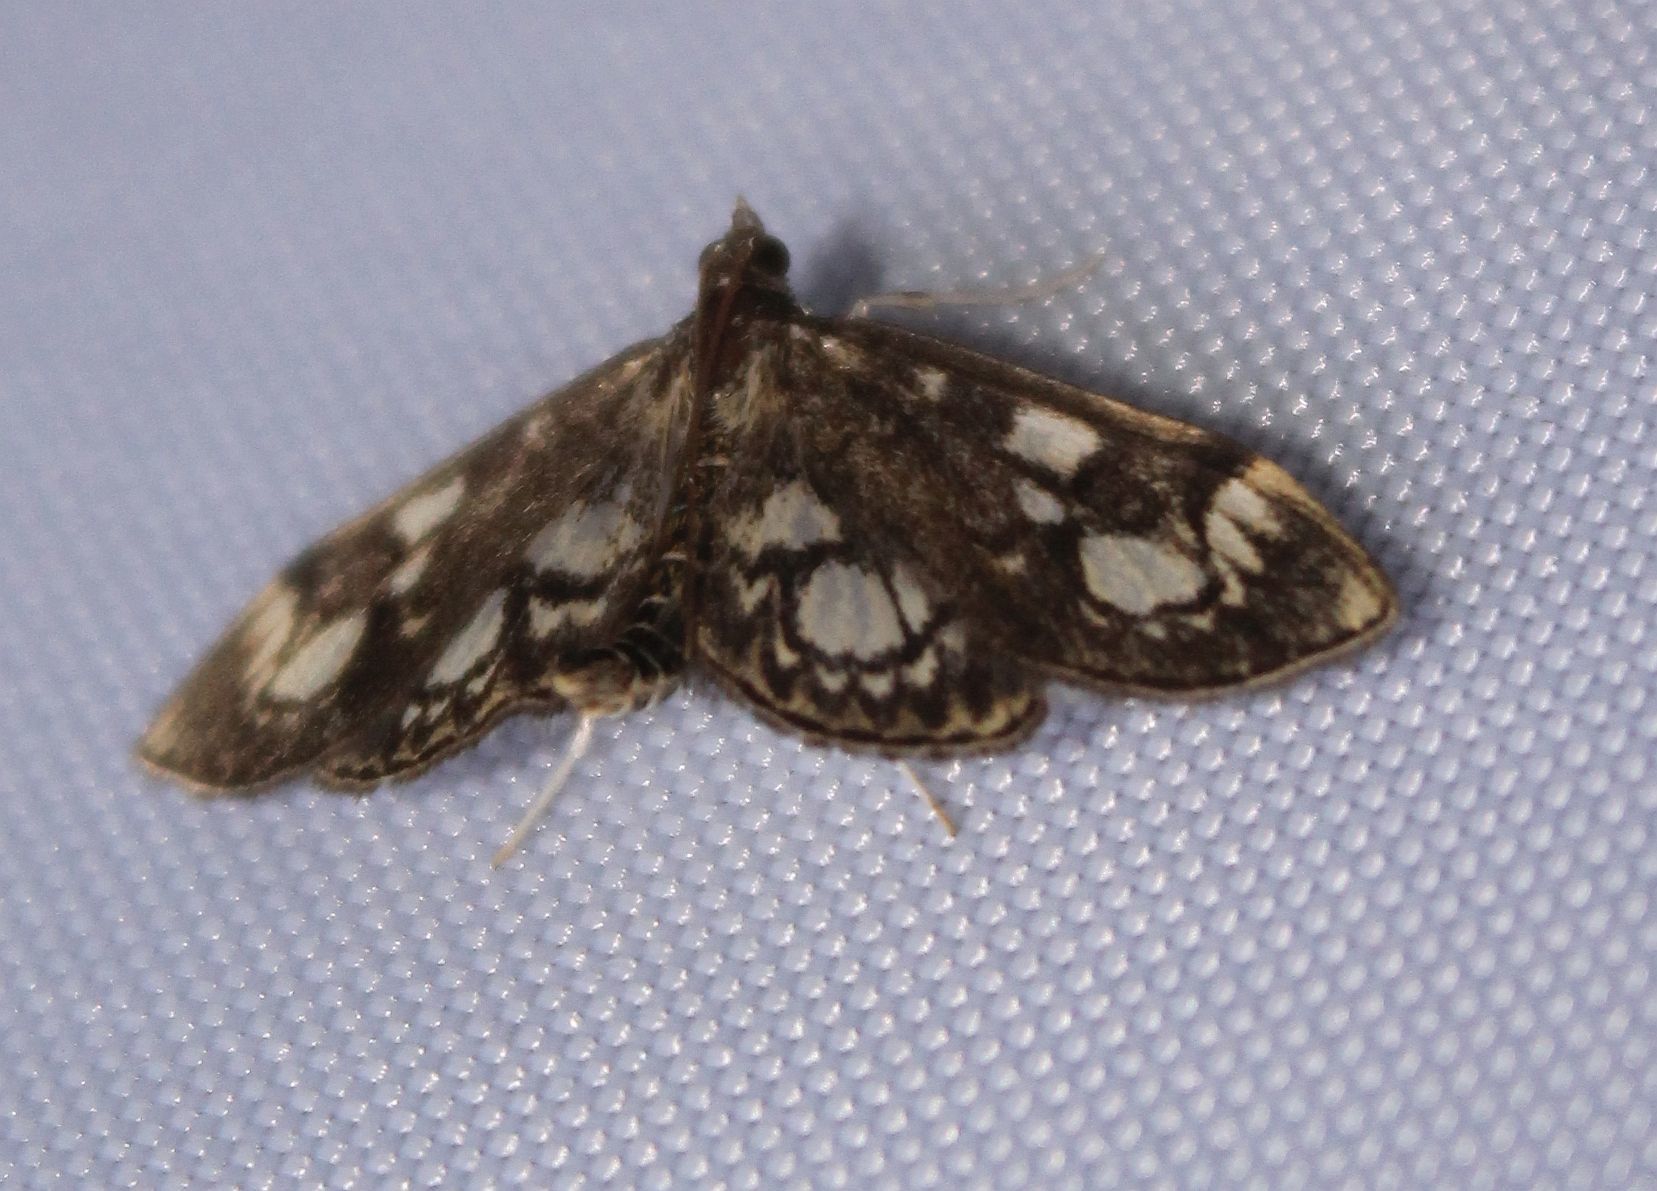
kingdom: Animalia
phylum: Arthropoda
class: Insecta
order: Lepidoptera
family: Crambidae
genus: Anania
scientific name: Anania coronata
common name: Elder pearl
